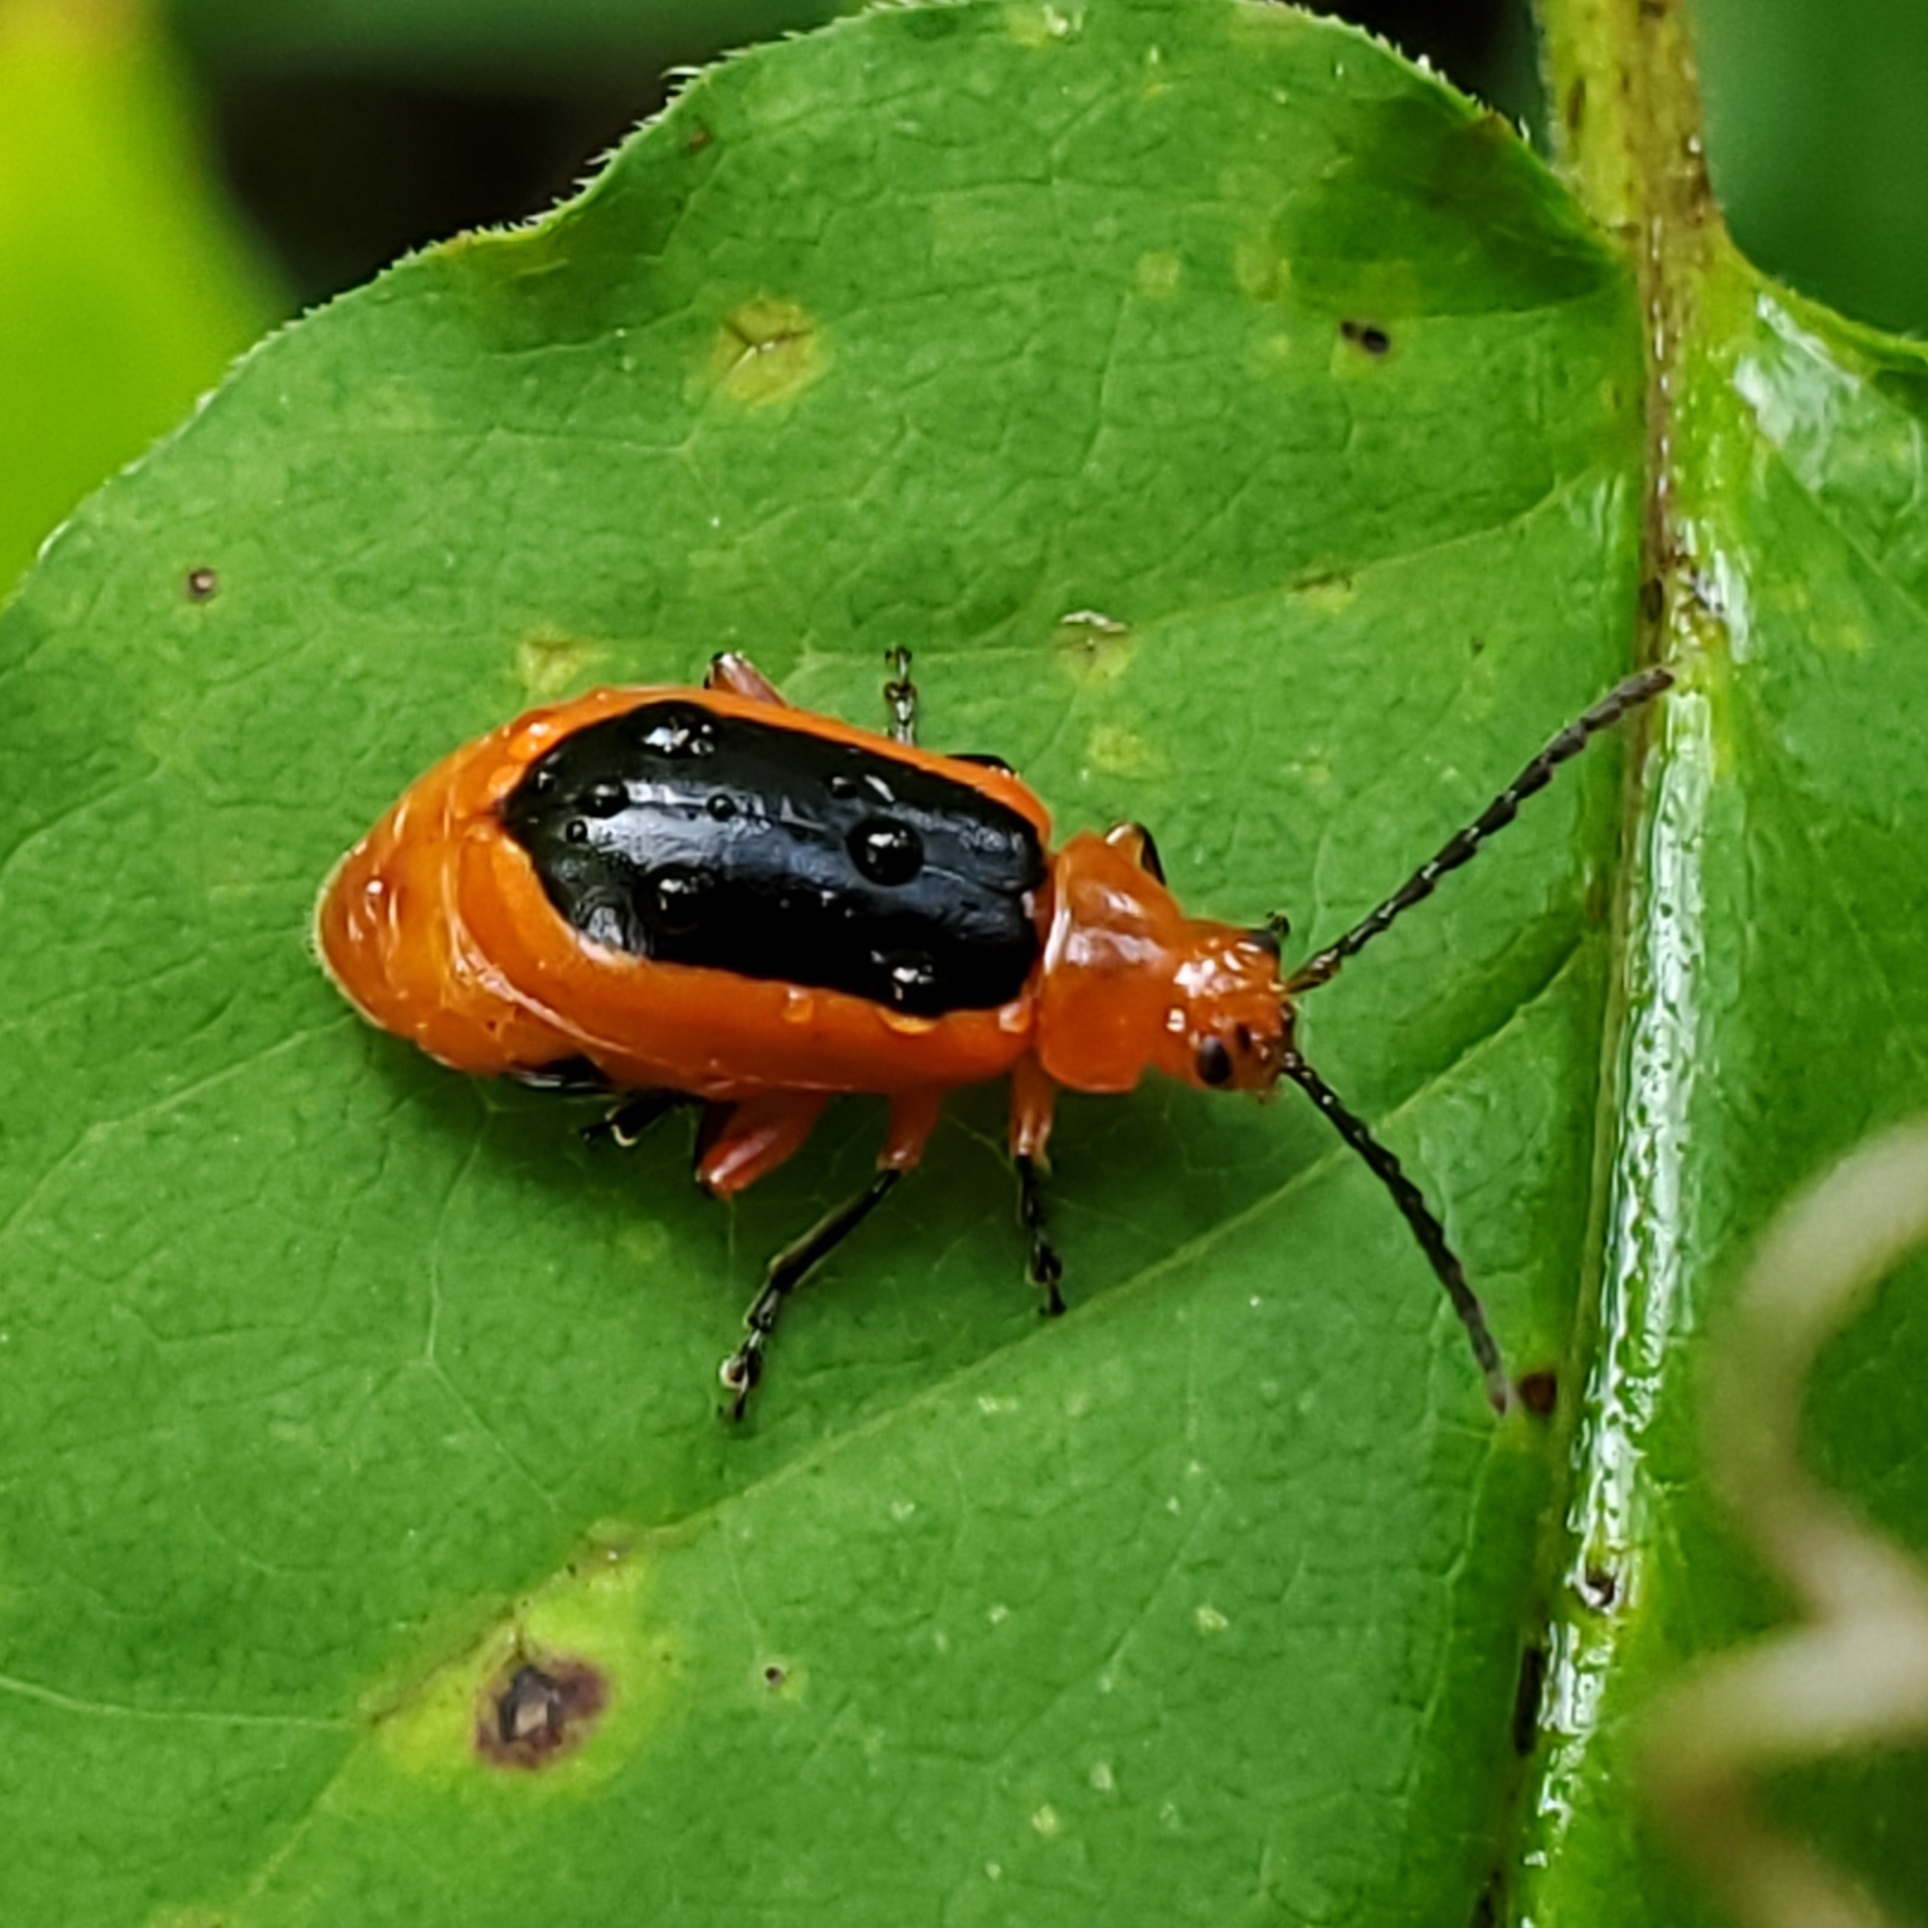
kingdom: Animalia
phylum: Arthropoda
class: Insecta
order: Coleoptera
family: Chrysomelidae
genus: Disonycha
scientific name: Disonycha discoidea
